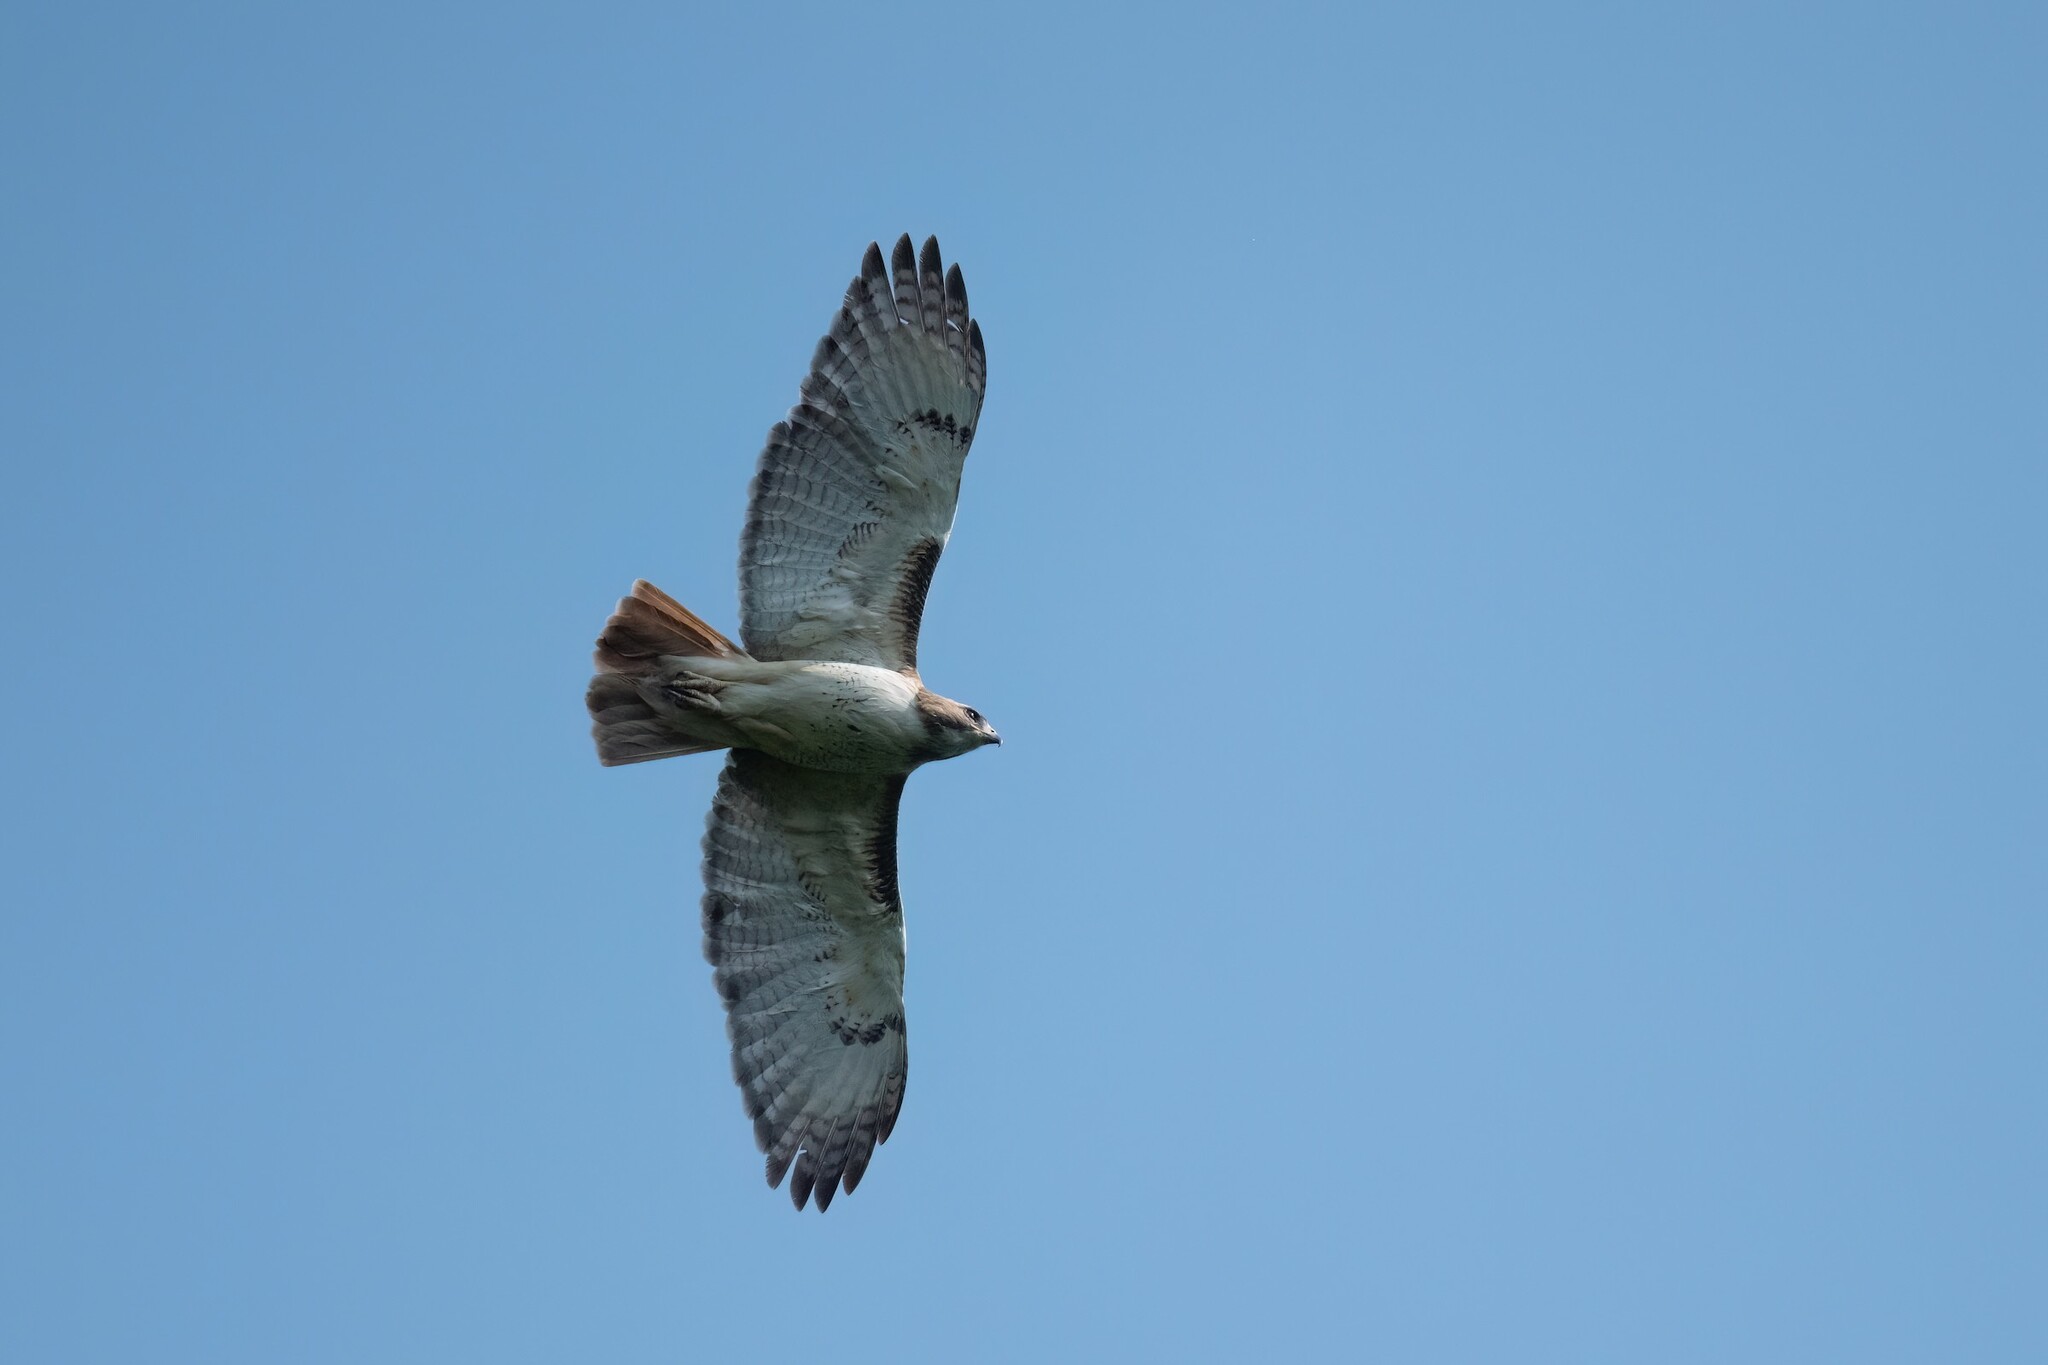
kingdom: Animalia
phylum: Chordata
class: Aves
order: Accipitriformes
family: Accipitridae
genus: Buteo
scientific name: Buteo jamaicensis
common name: Red-tailed hawk
